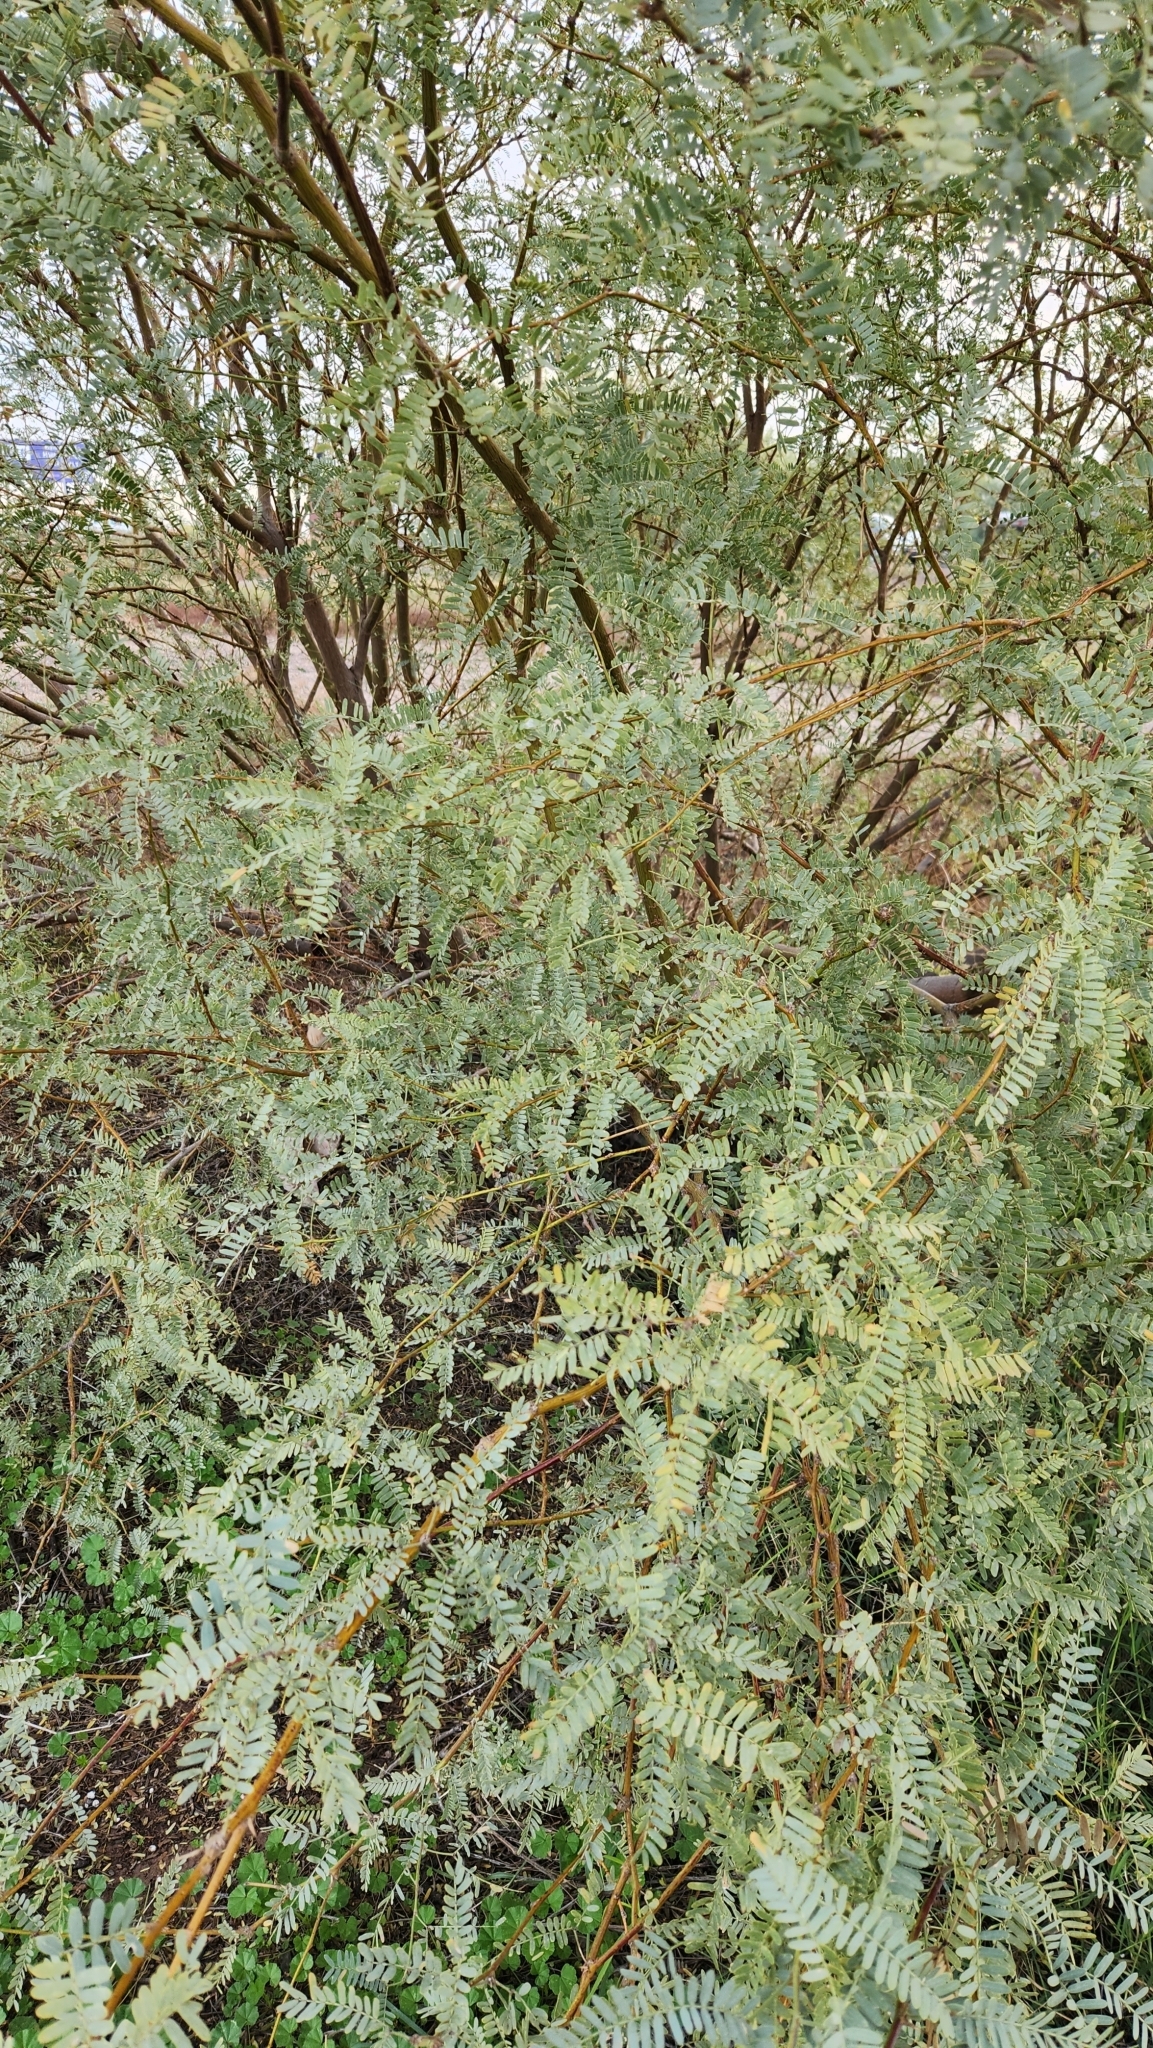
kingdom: Plantae
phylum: Tracheophyta
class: Magnoliopsida
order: Fabales
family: Fabaceae
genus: Prosopis
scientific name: Prosopis velutina
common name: Velvet mesquite
